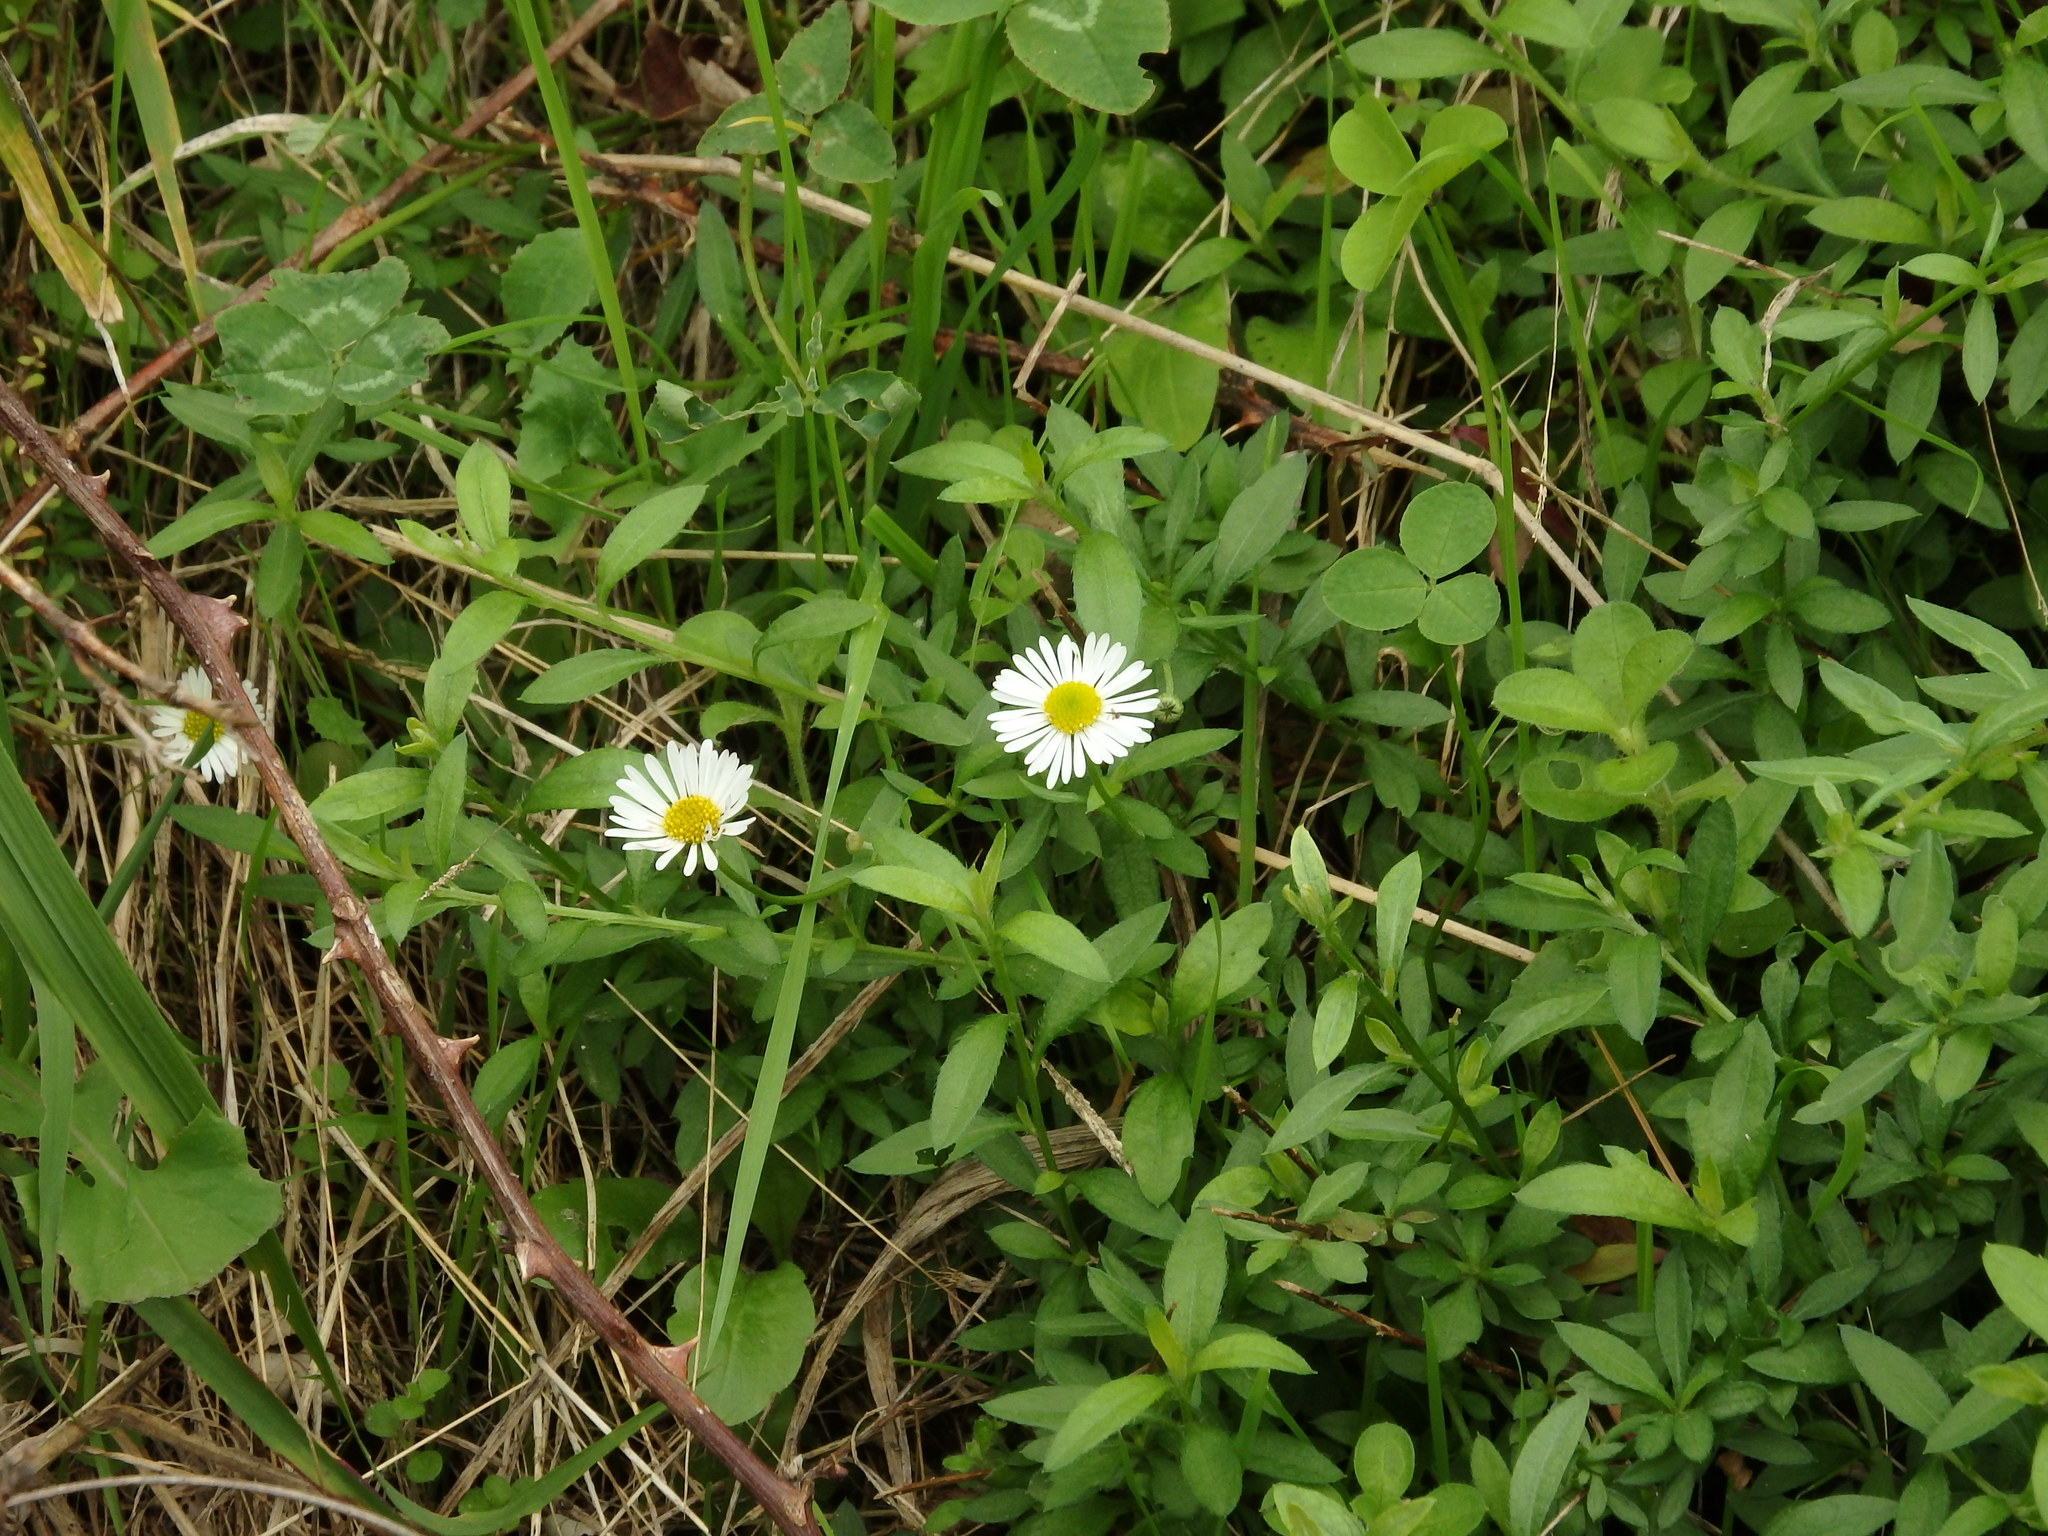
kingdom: Plantae
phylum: Tracheophyta
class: Magnoliopsida
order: Asterales
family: Asteraceae
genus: Erigeron
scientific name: Erigeron karvinskianus
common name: Mexican fleabane
